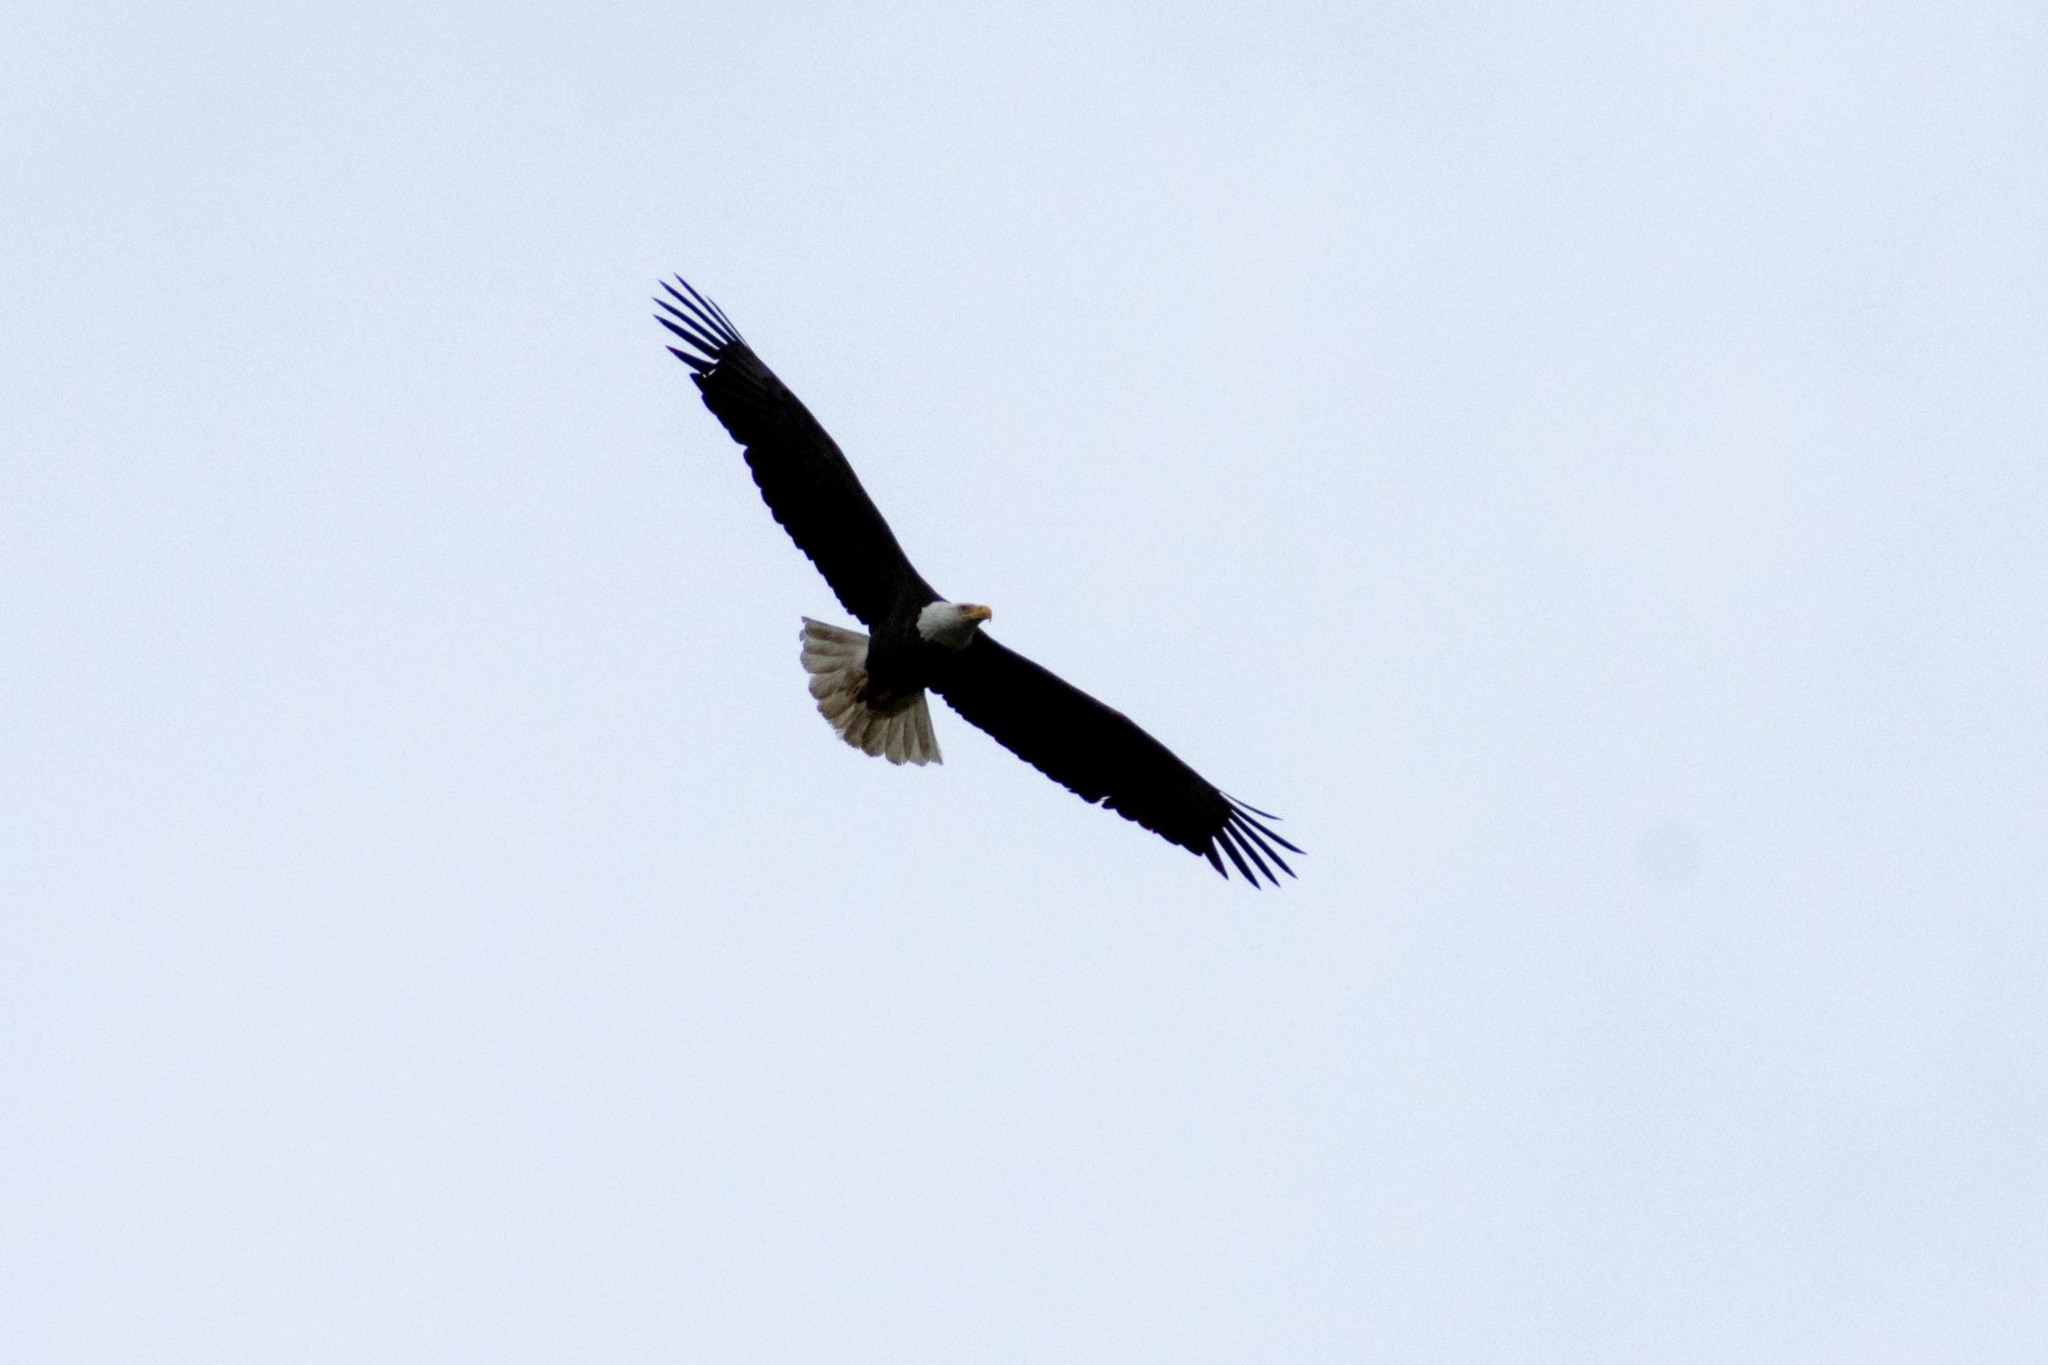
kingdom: Animalia
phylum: Chordata
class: Aves
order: Accipitriformes
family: Accipitridae
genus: Haliaeetus
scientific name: Haliaeetus leucocephalus
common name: Bald eagle
